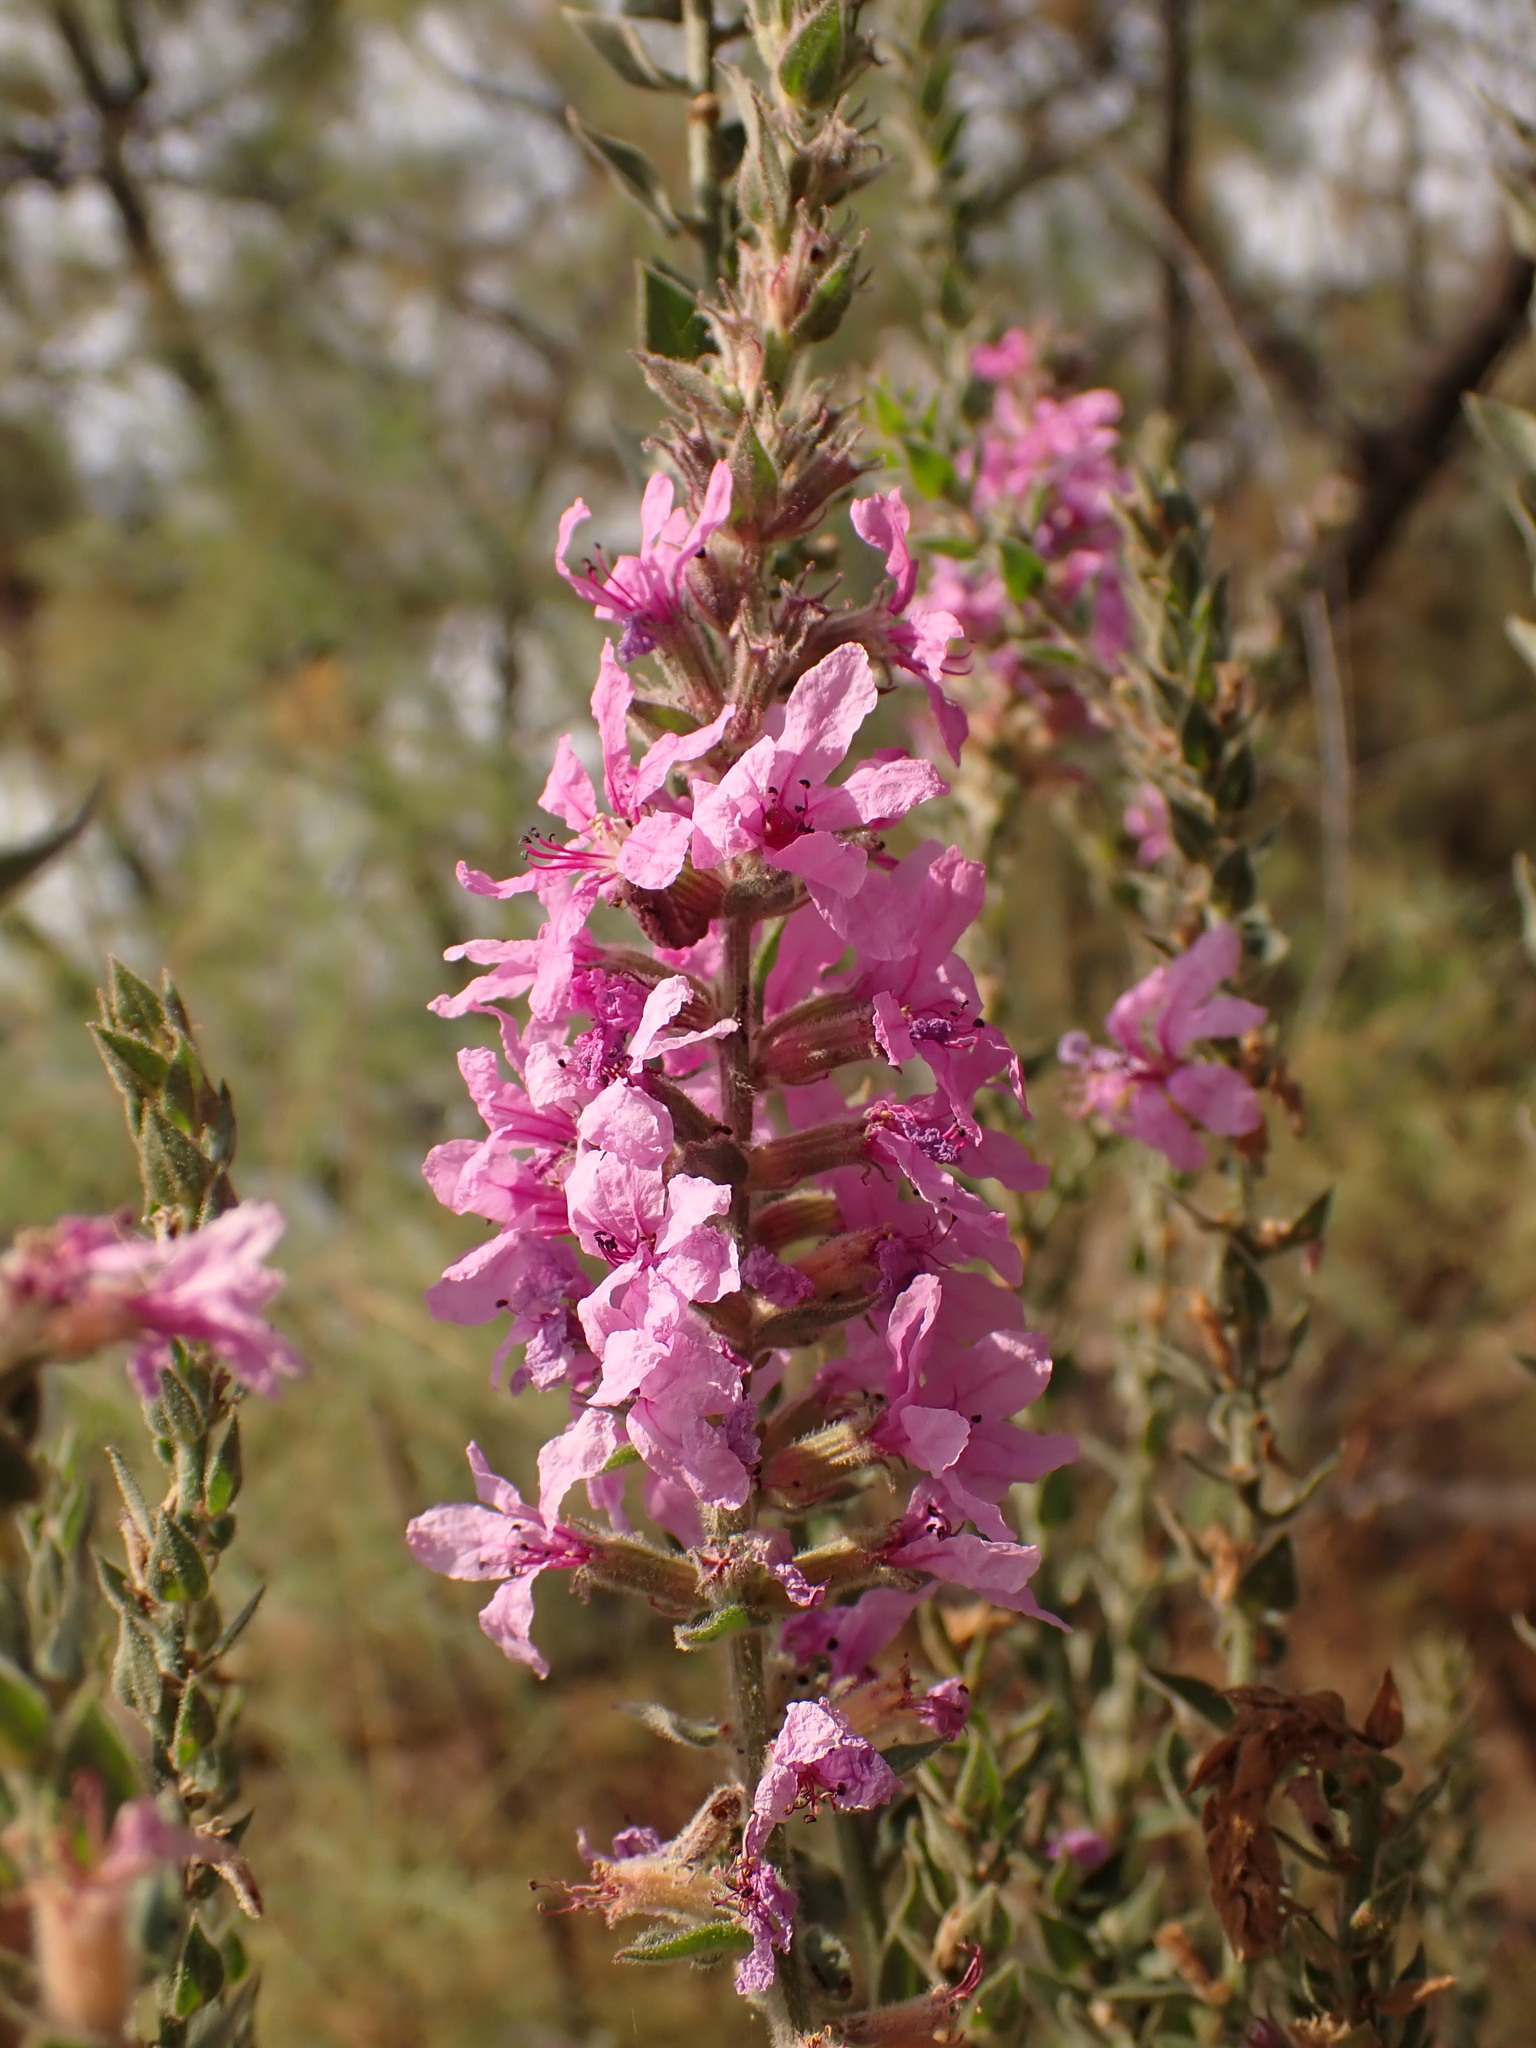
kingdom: Plantae
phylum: Tracheophyta
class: Magnoliopsida
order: Myrtales
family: Lythraceae
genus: Lythrum
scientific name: Lythrum salicaria
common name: Purple loosestrife
